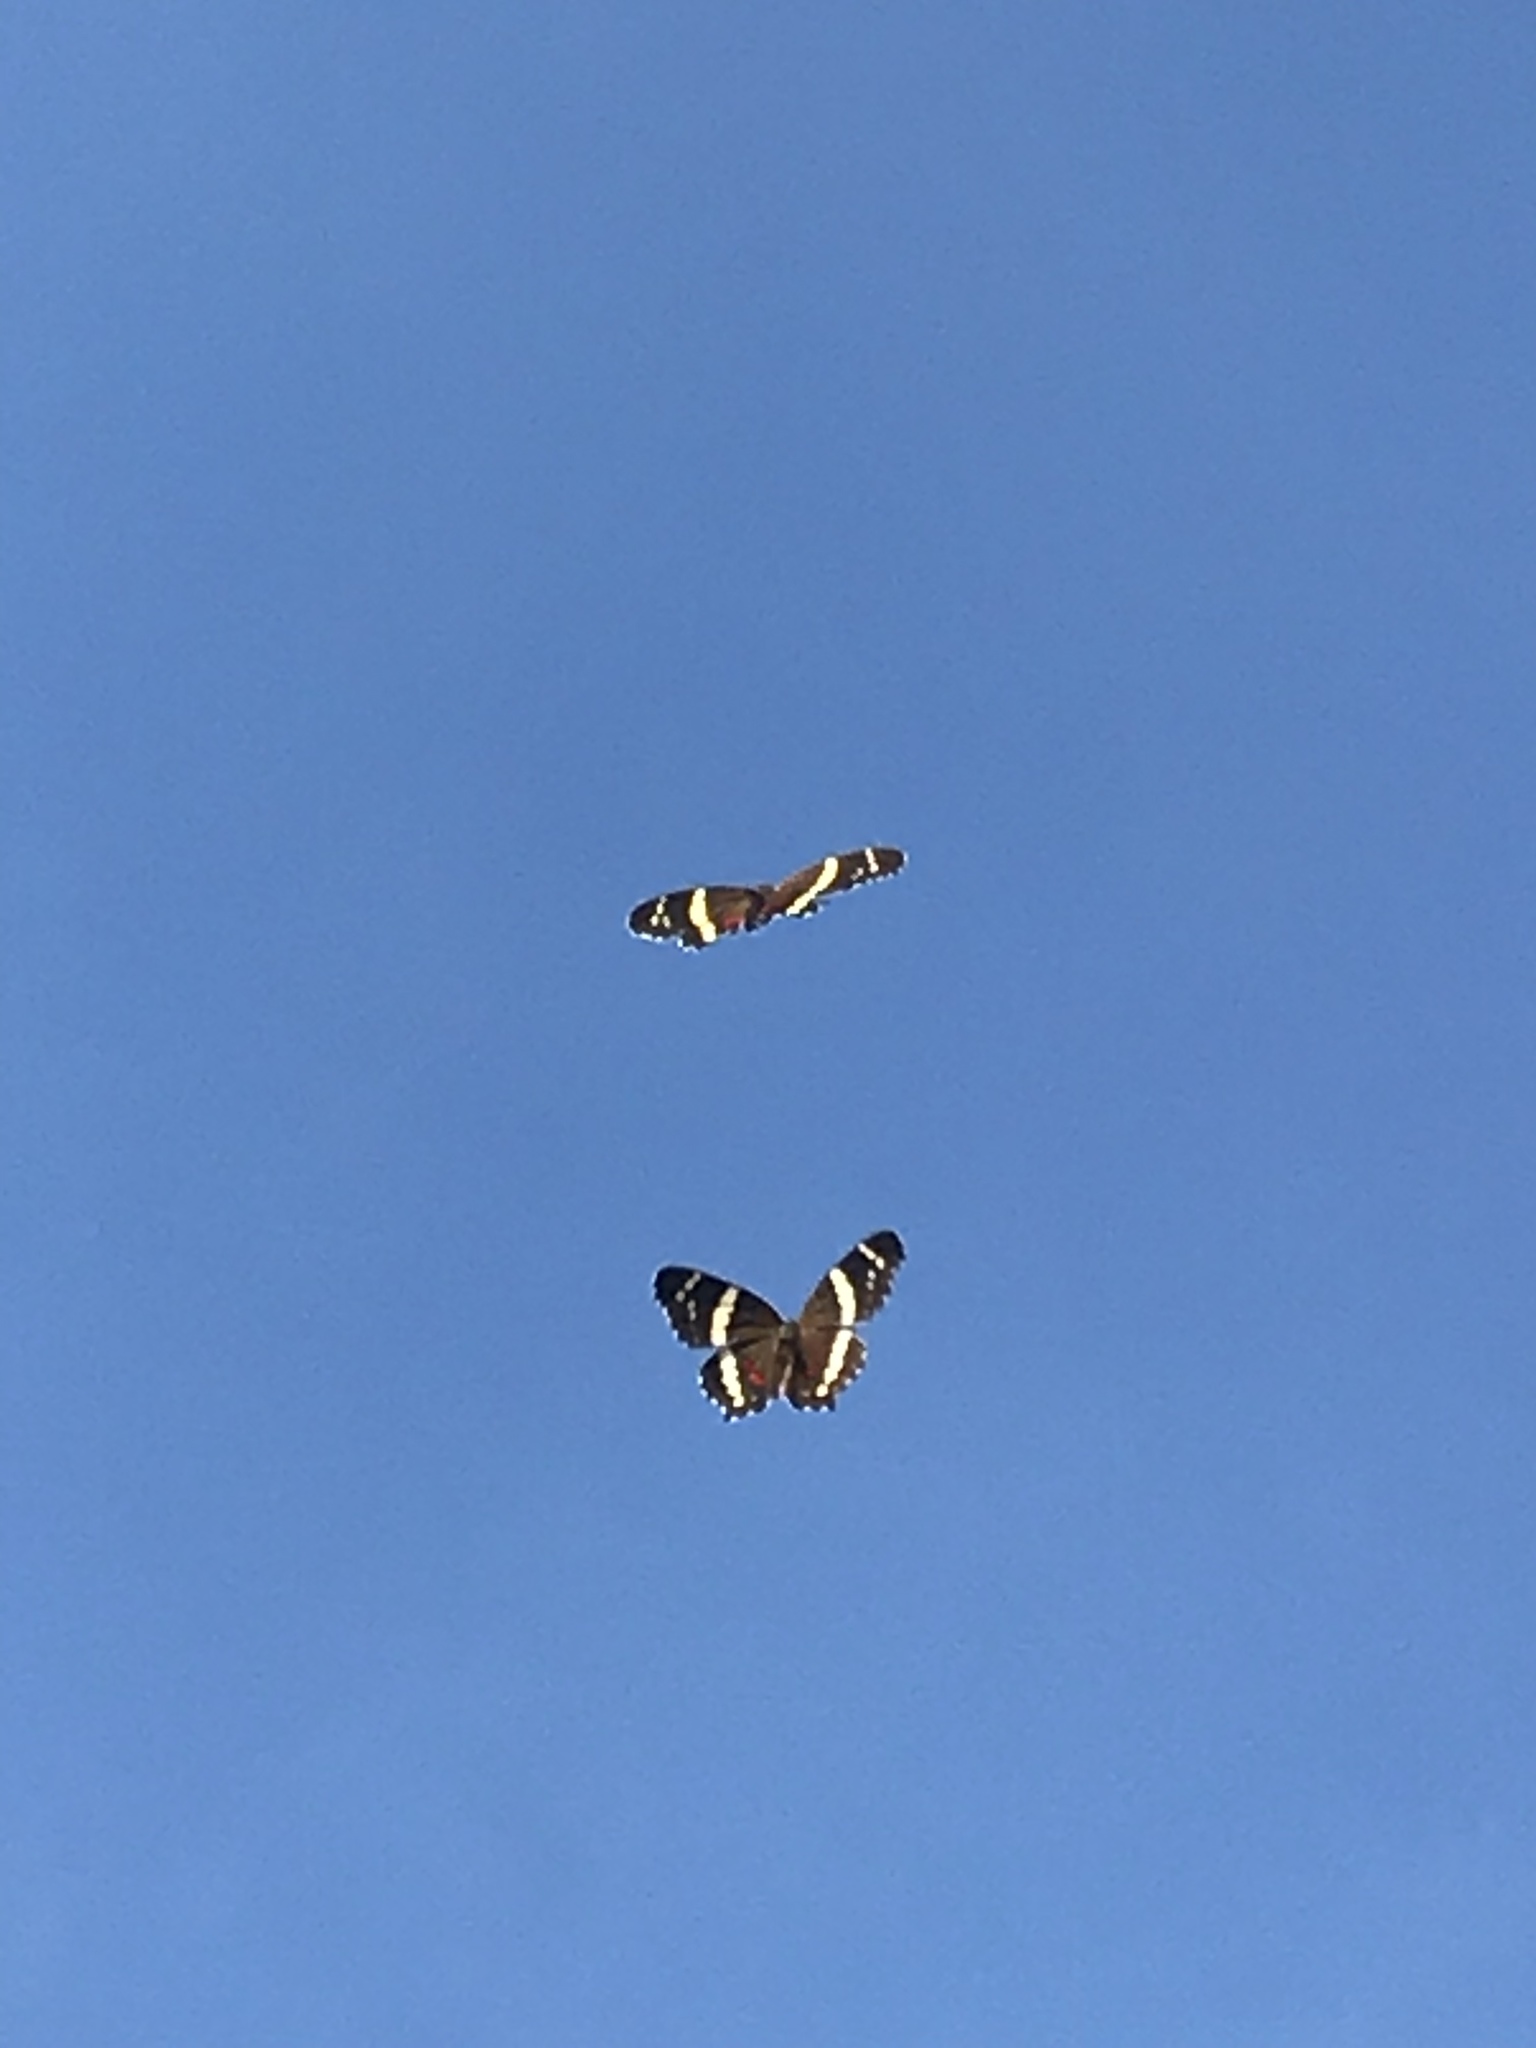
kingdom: Animalia
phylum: Arthropoda
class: Insecta
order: Lepidoptera
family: Nymphalidae
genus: Anartia
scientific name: Anartia fatima
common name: Banded peacock
